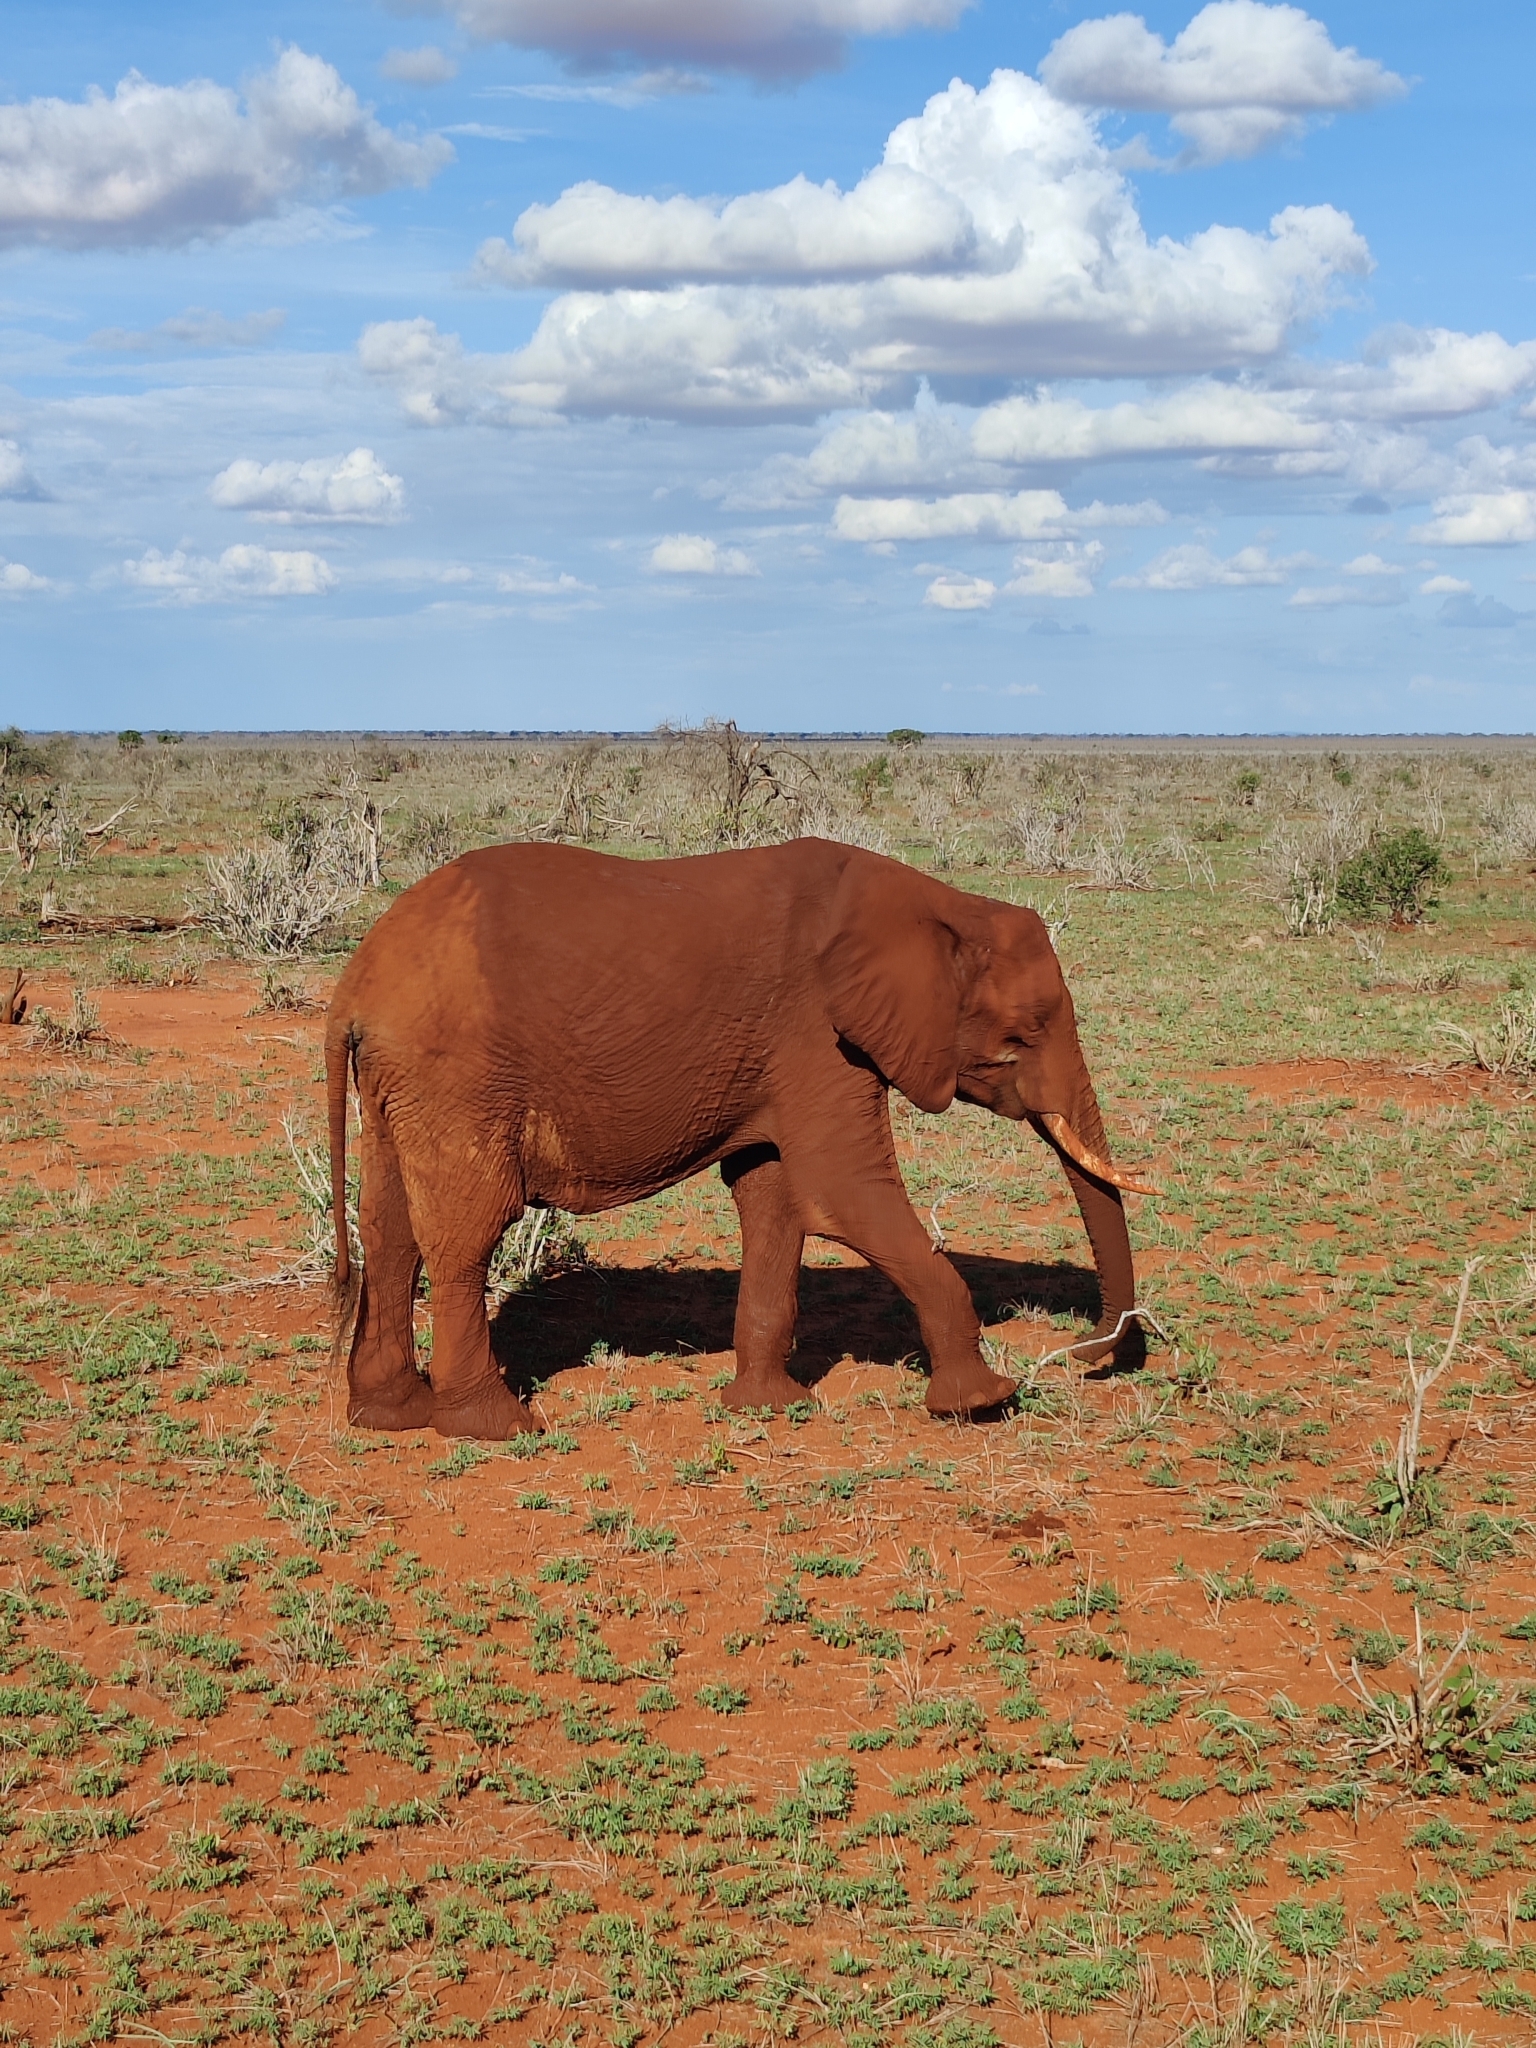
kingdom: Animalia
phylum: Chordata
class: Mammalia
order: Proboscidea
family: Elephantidae
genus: Loxodonta
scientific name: Loxodonta africana
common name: African elephant
